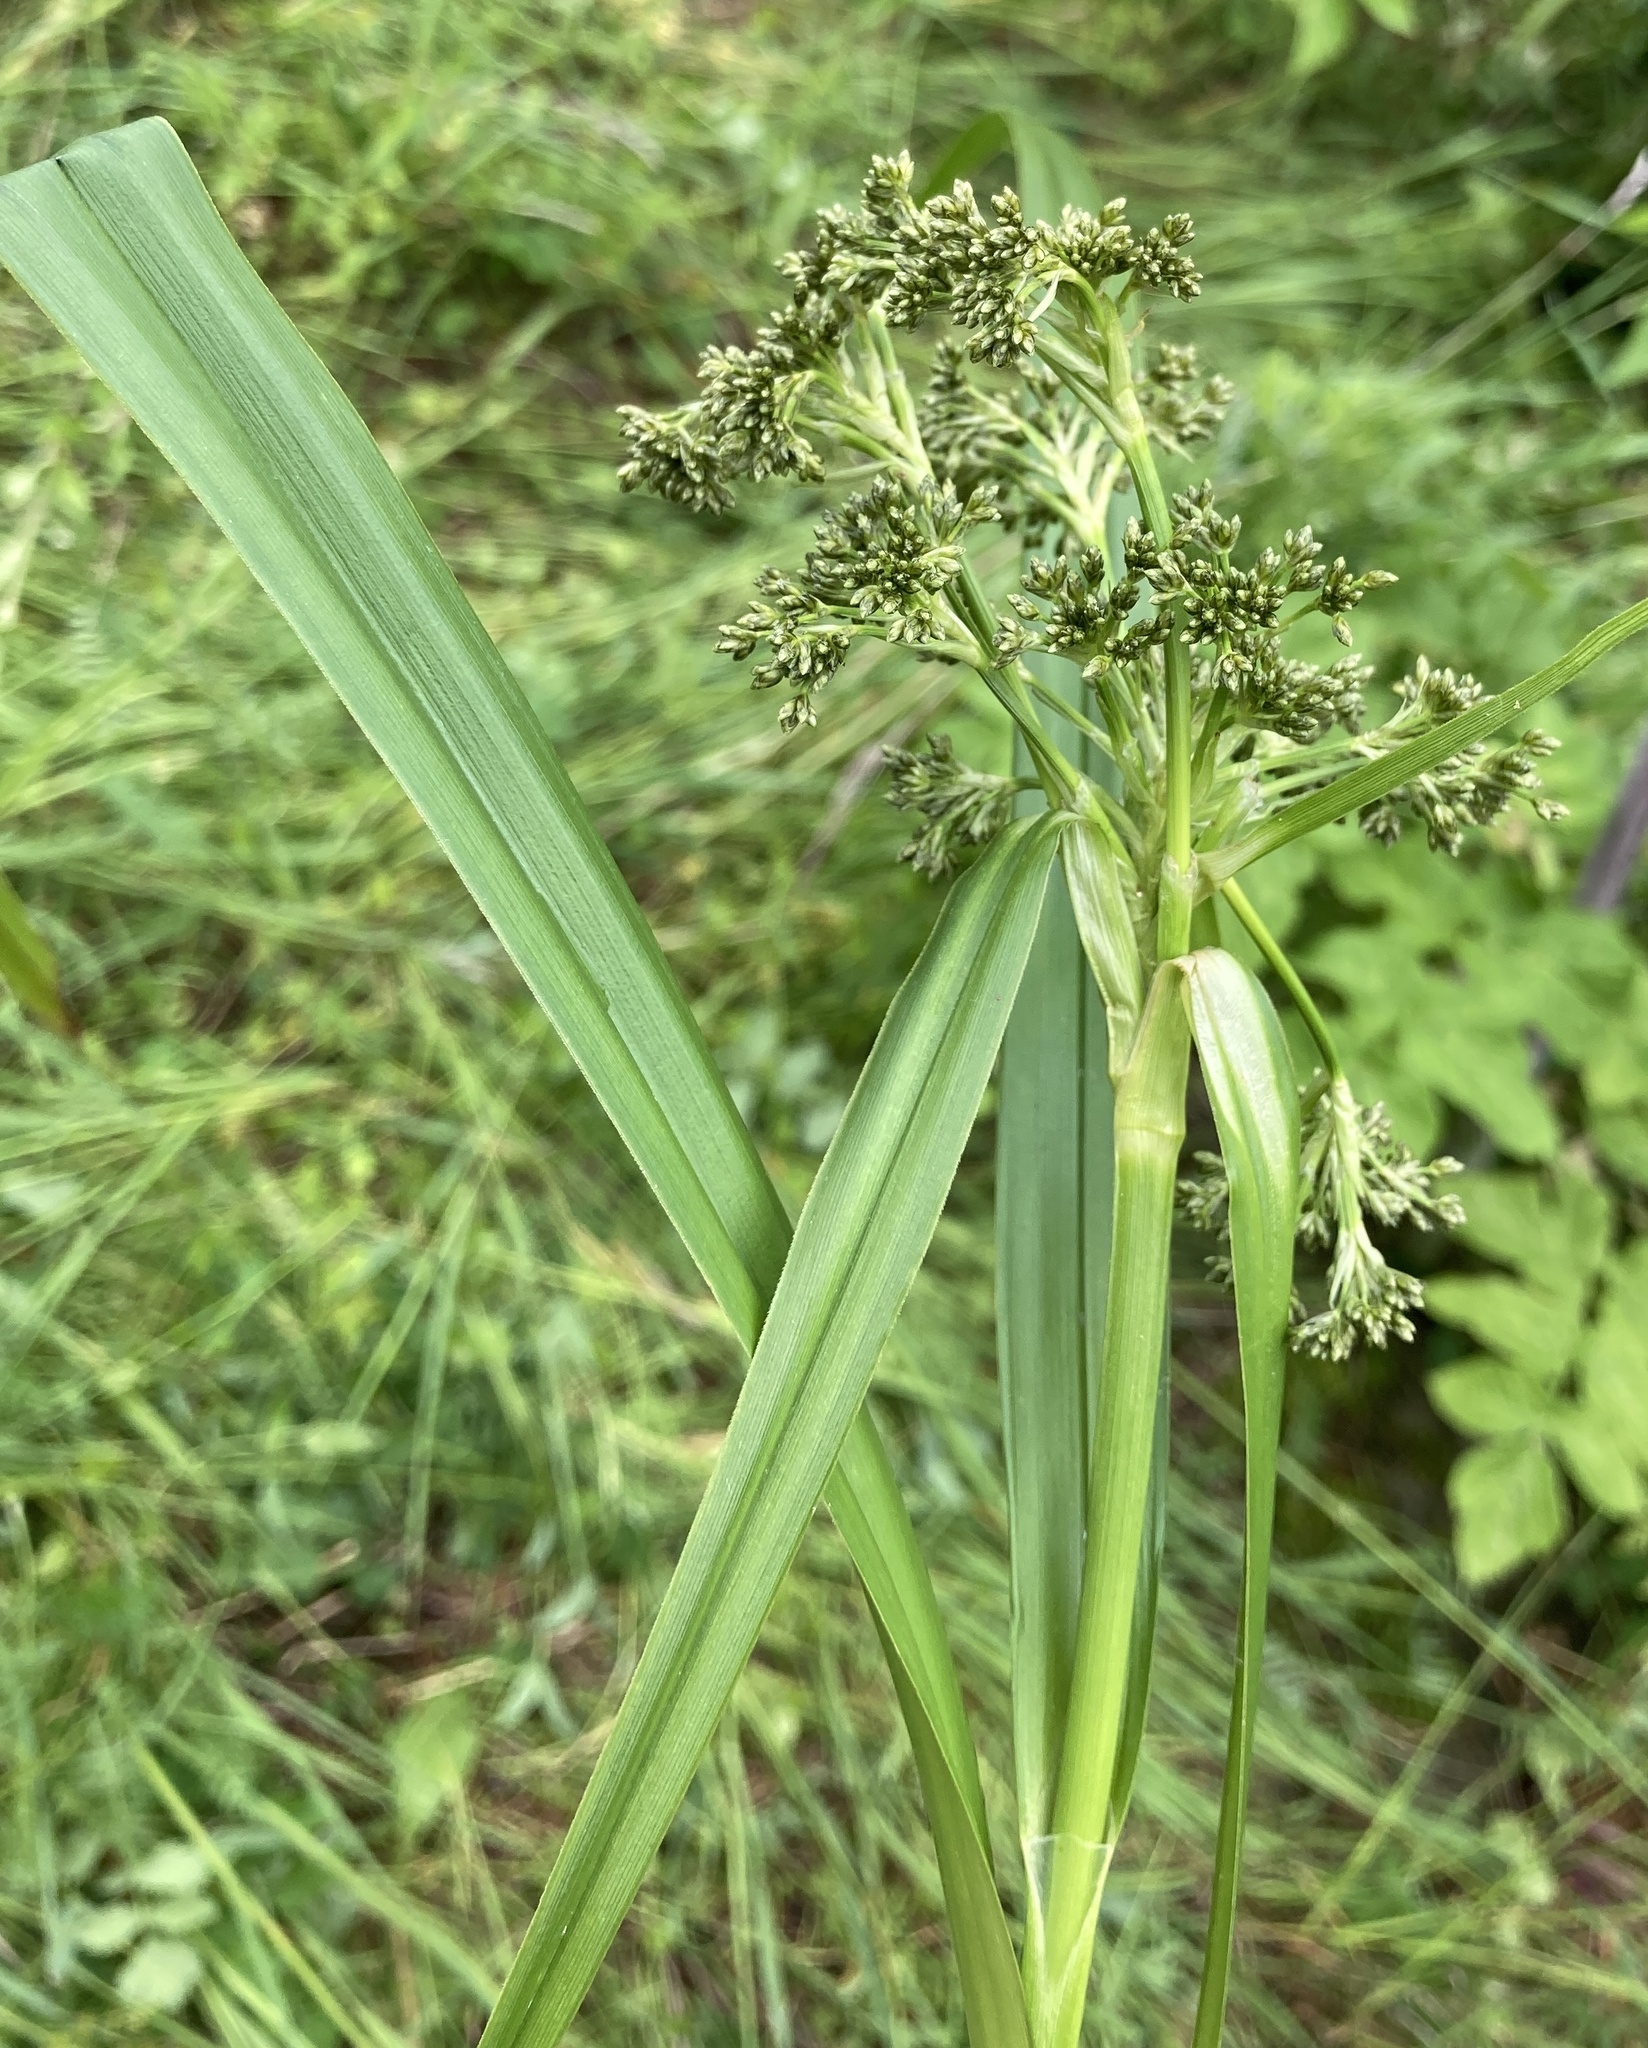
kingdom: Plantae
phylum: Tracheophyta
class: Liliopsida
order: Poales
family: Cyperaceae
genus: Scirpus
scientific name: Scirpus sylvaticus
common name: Wood club-rush
